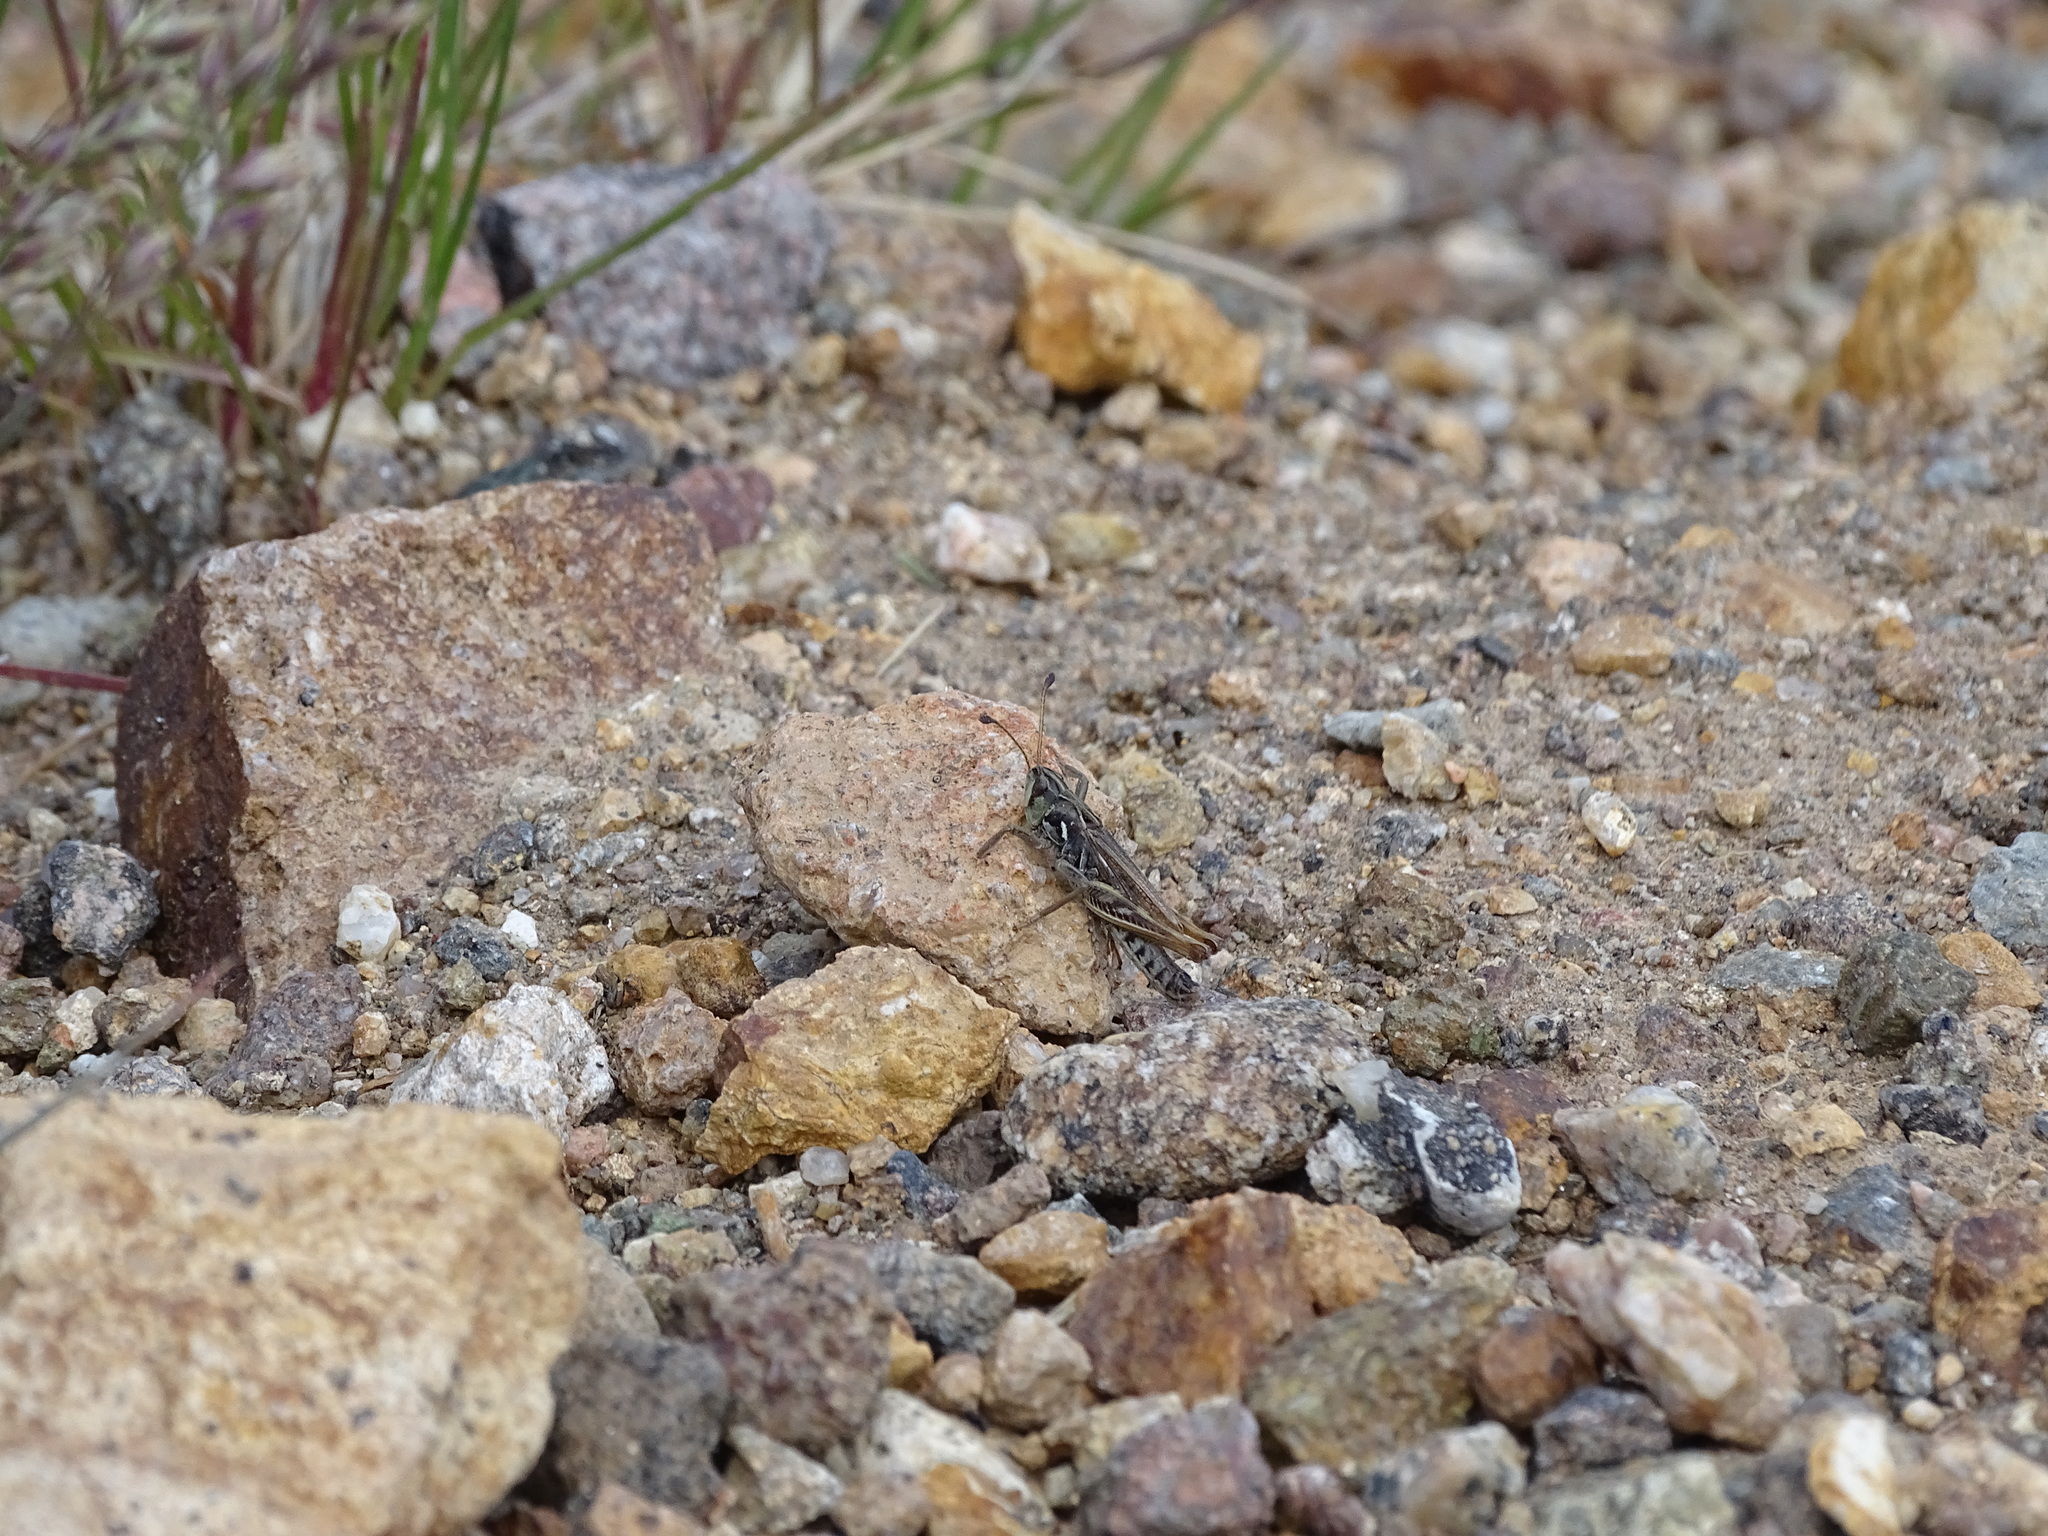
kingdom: Animalia
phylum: Arthropoda
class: Insecta
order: Orthoptera
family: Acrididae
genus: Aeropedellus
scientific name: Aeropedellus clavatus
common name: Clubhorned grasshopper
